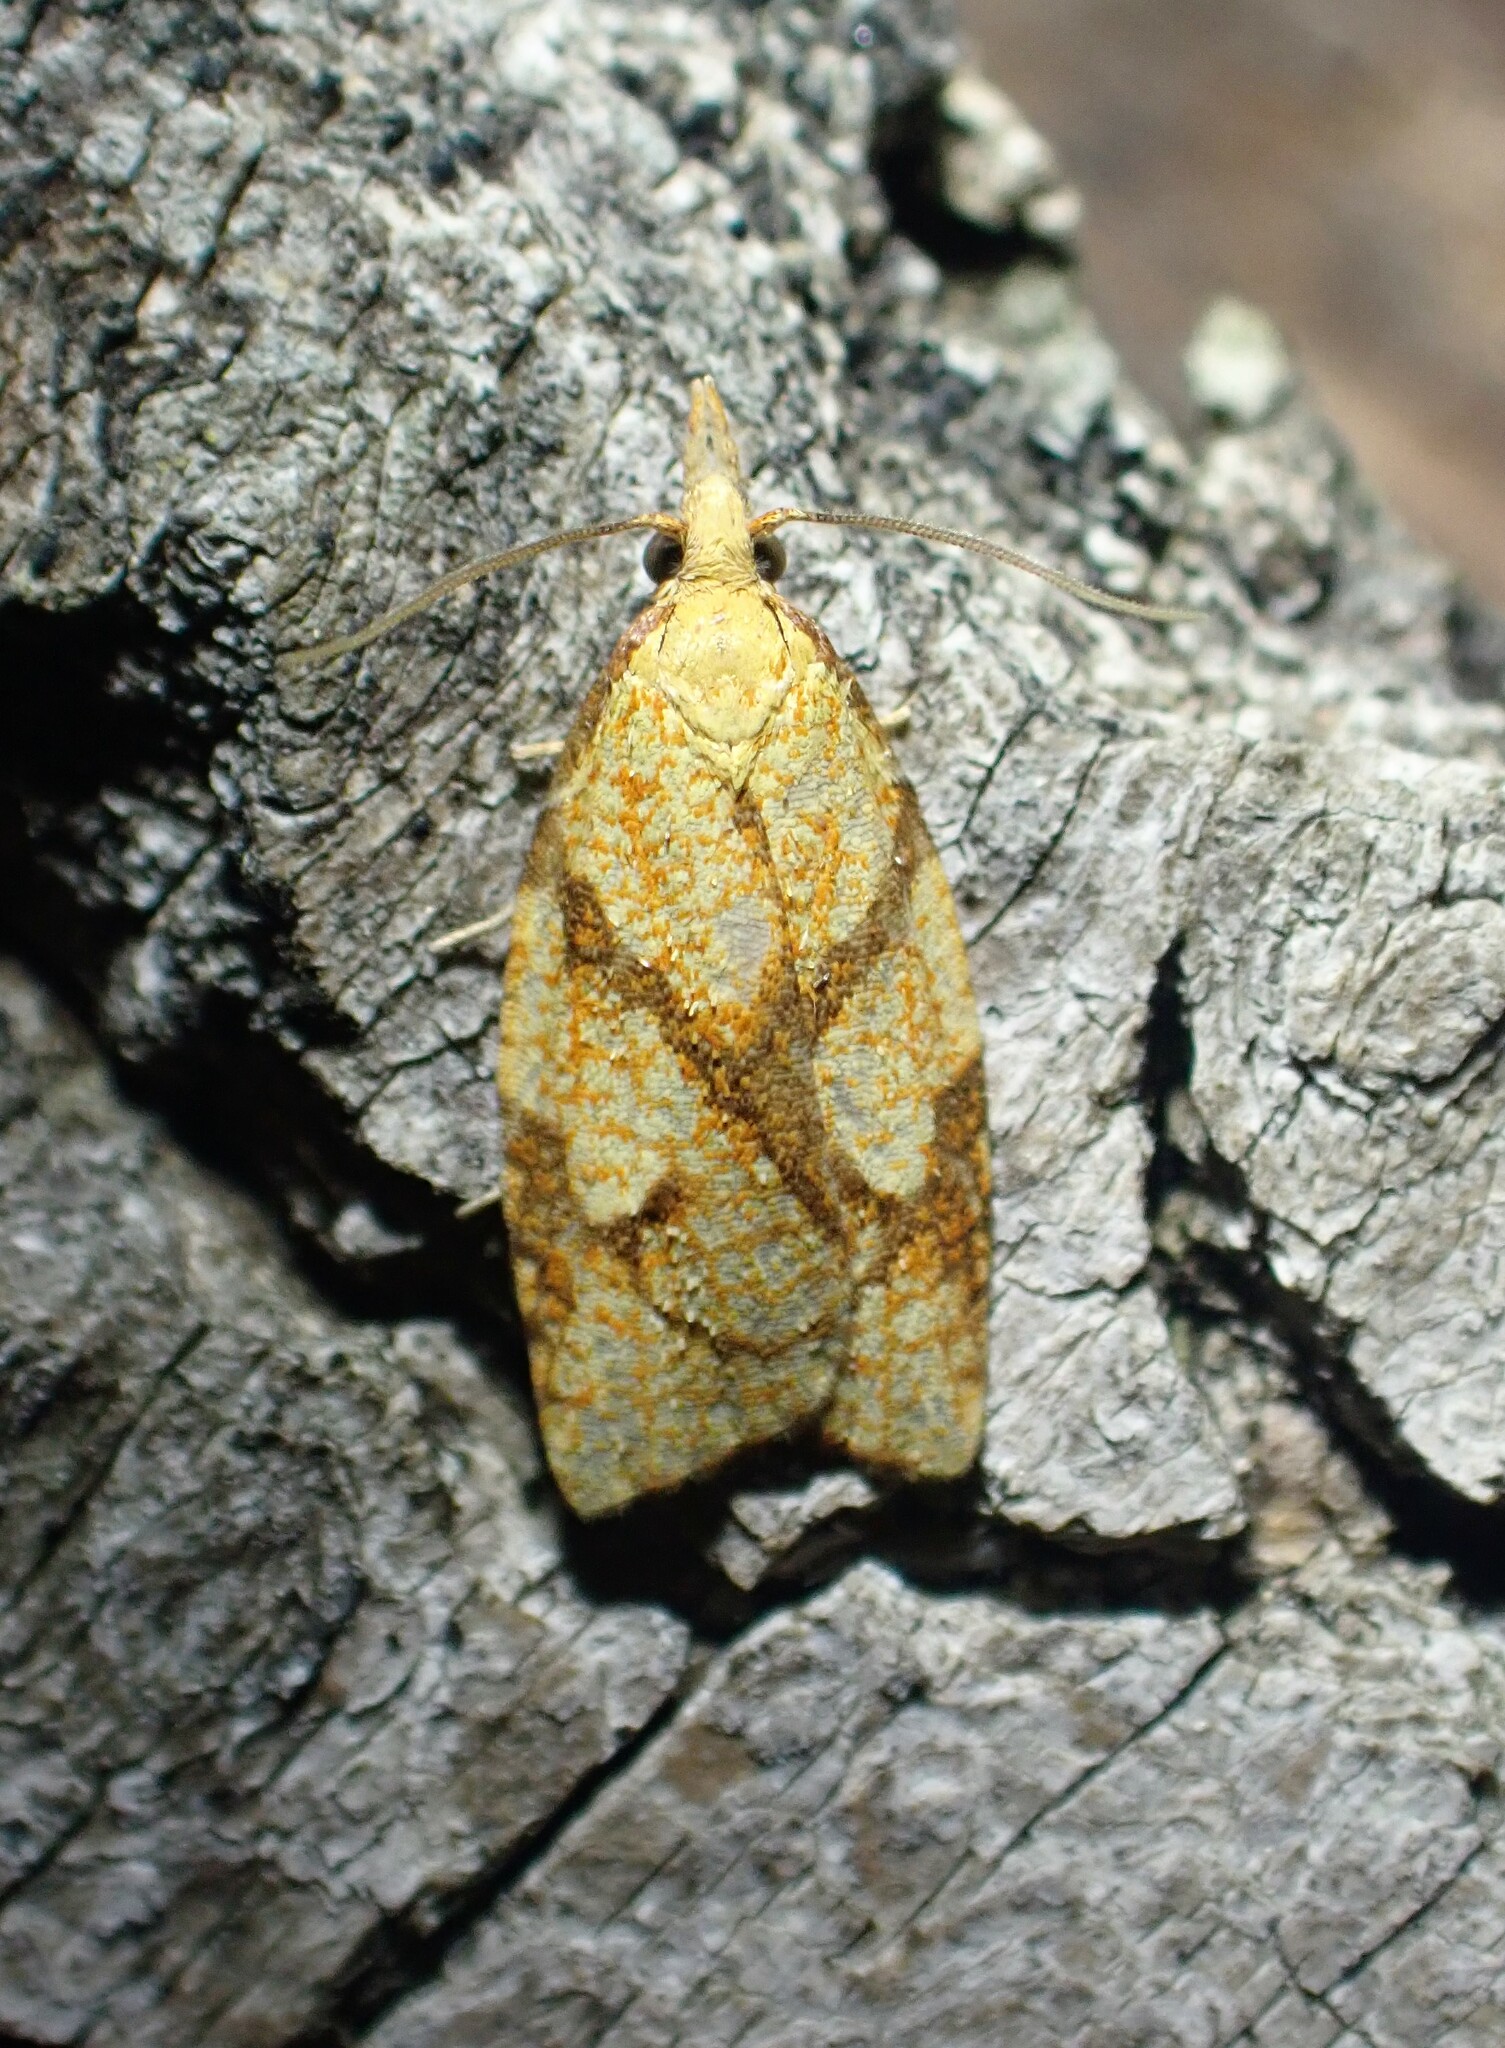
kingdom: Animalia
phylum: Arthropoda
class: Insecta
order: Lepidoptera
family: Tortricidae
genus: Cenopis
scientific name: Cenopis reticulatana
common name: Reticulated fruitworm moth
